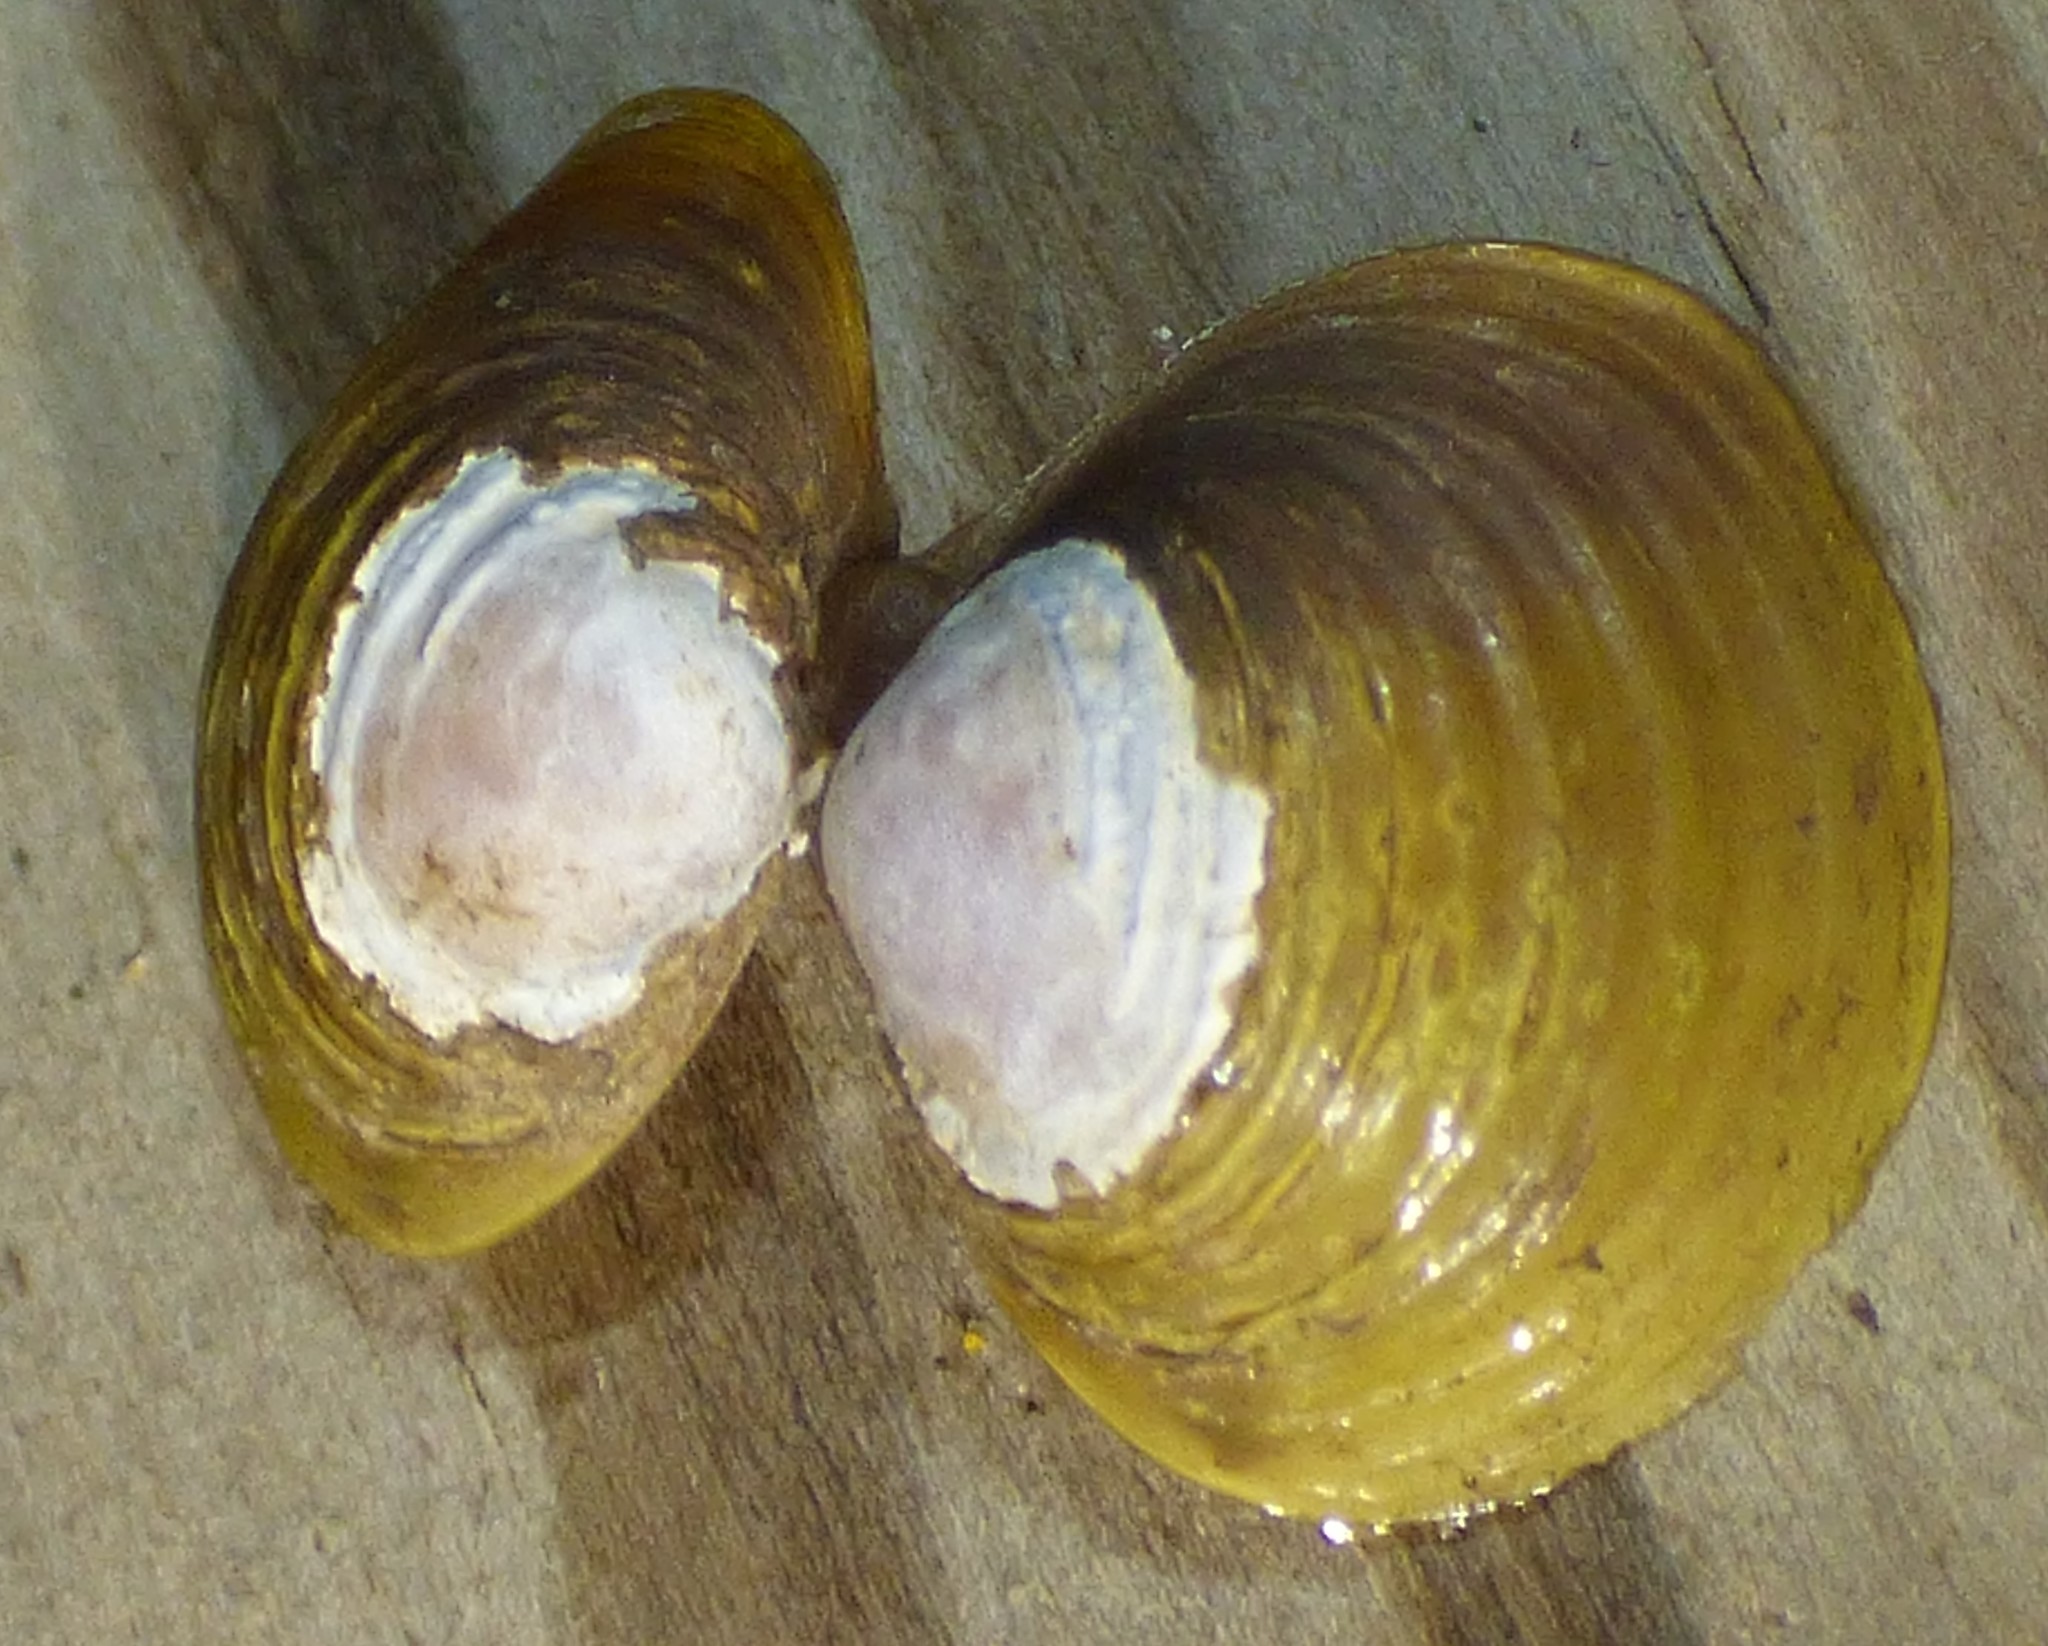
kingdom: Animalia
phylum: Mollusca
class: Bivalvia
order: Venerida
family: Cyrenidae
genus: Corbicula
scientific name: Corbicula fluminea
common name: Asian clam
